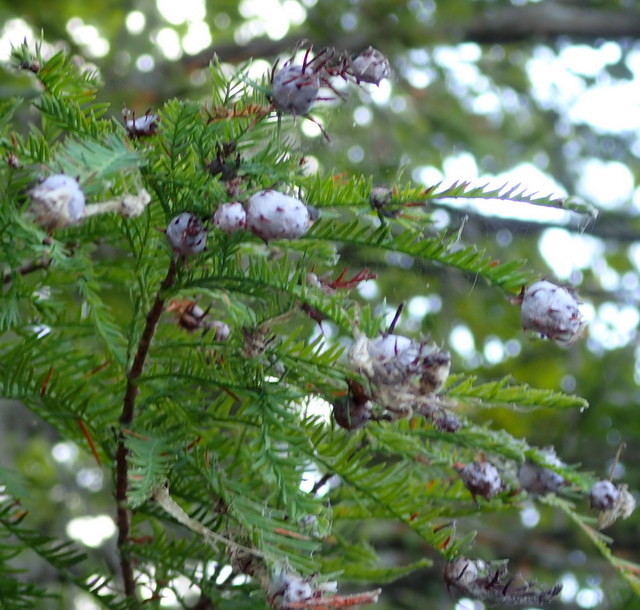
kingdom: Animalia
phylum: Arthropoda
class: Insecta
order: Diptera
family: Cecidomyiidae
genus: Taxodiomyia
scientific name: Taxodiomyia cupressiananassa
